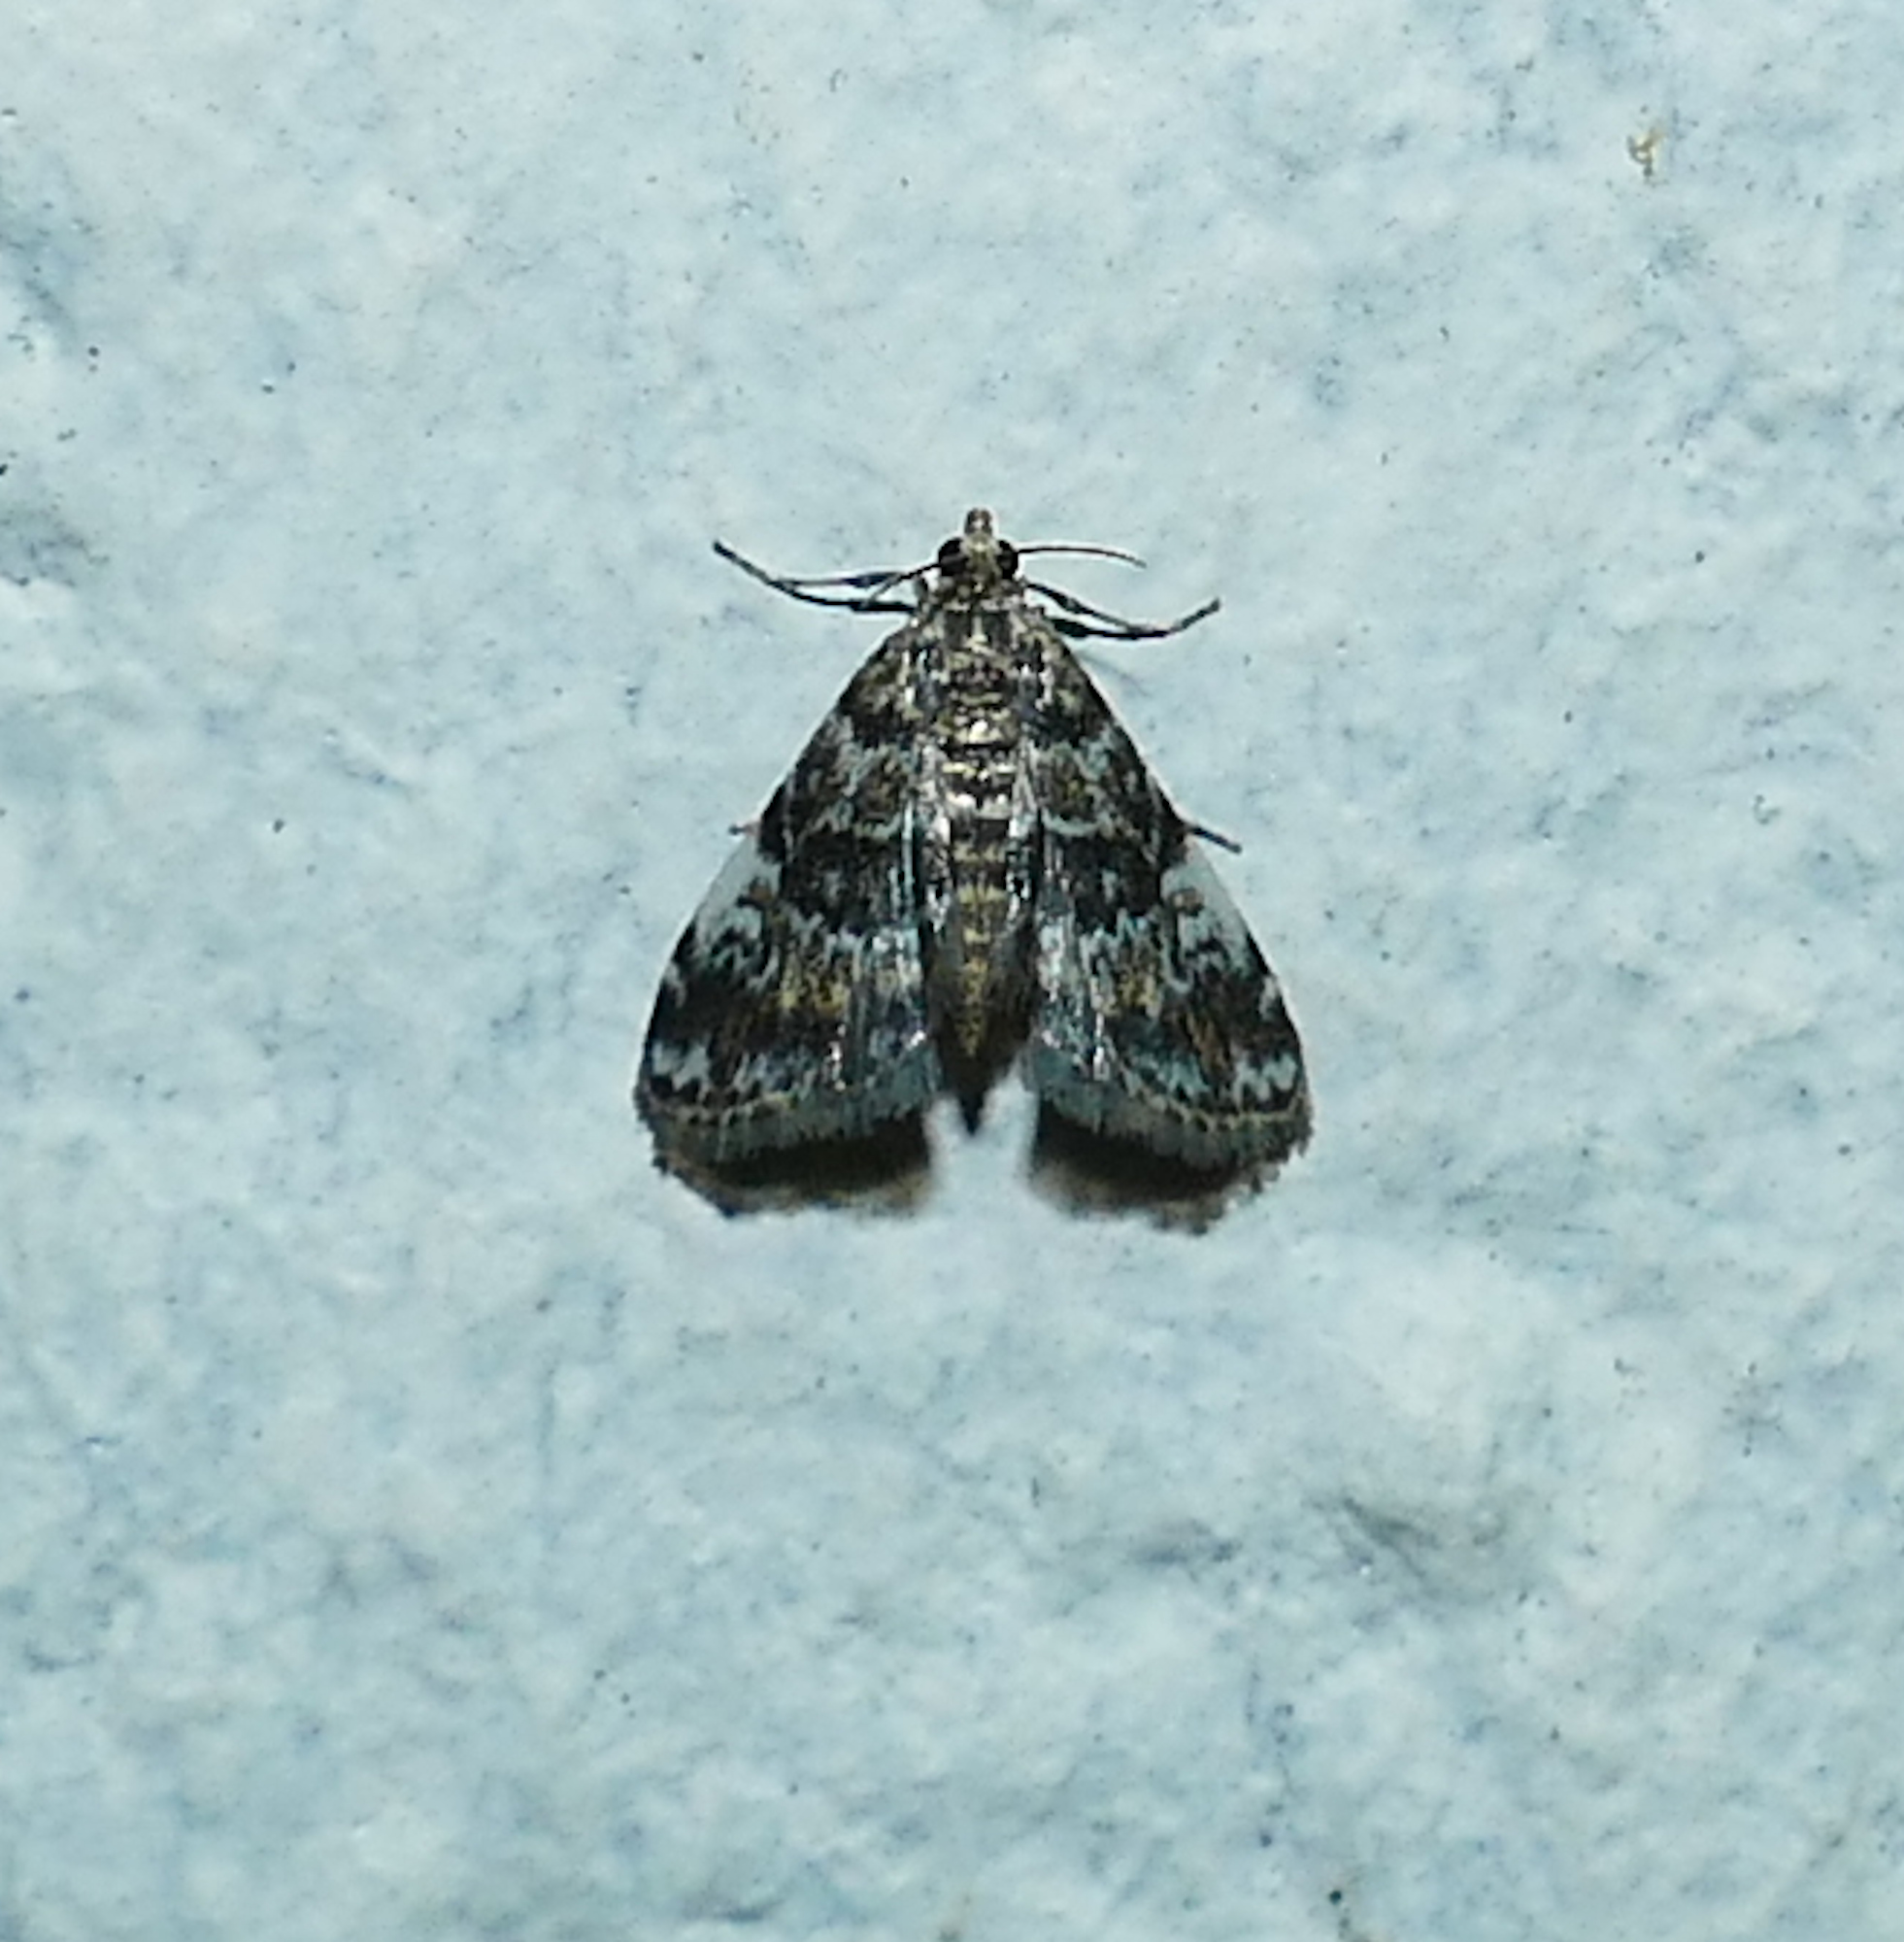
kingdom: Animalia
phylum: Arthropoda
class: Insecta
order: Lepidoptera
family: Crambidae
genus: Elophila
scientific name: Elophila obliteralis
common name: Waterlily leafcutter moth
